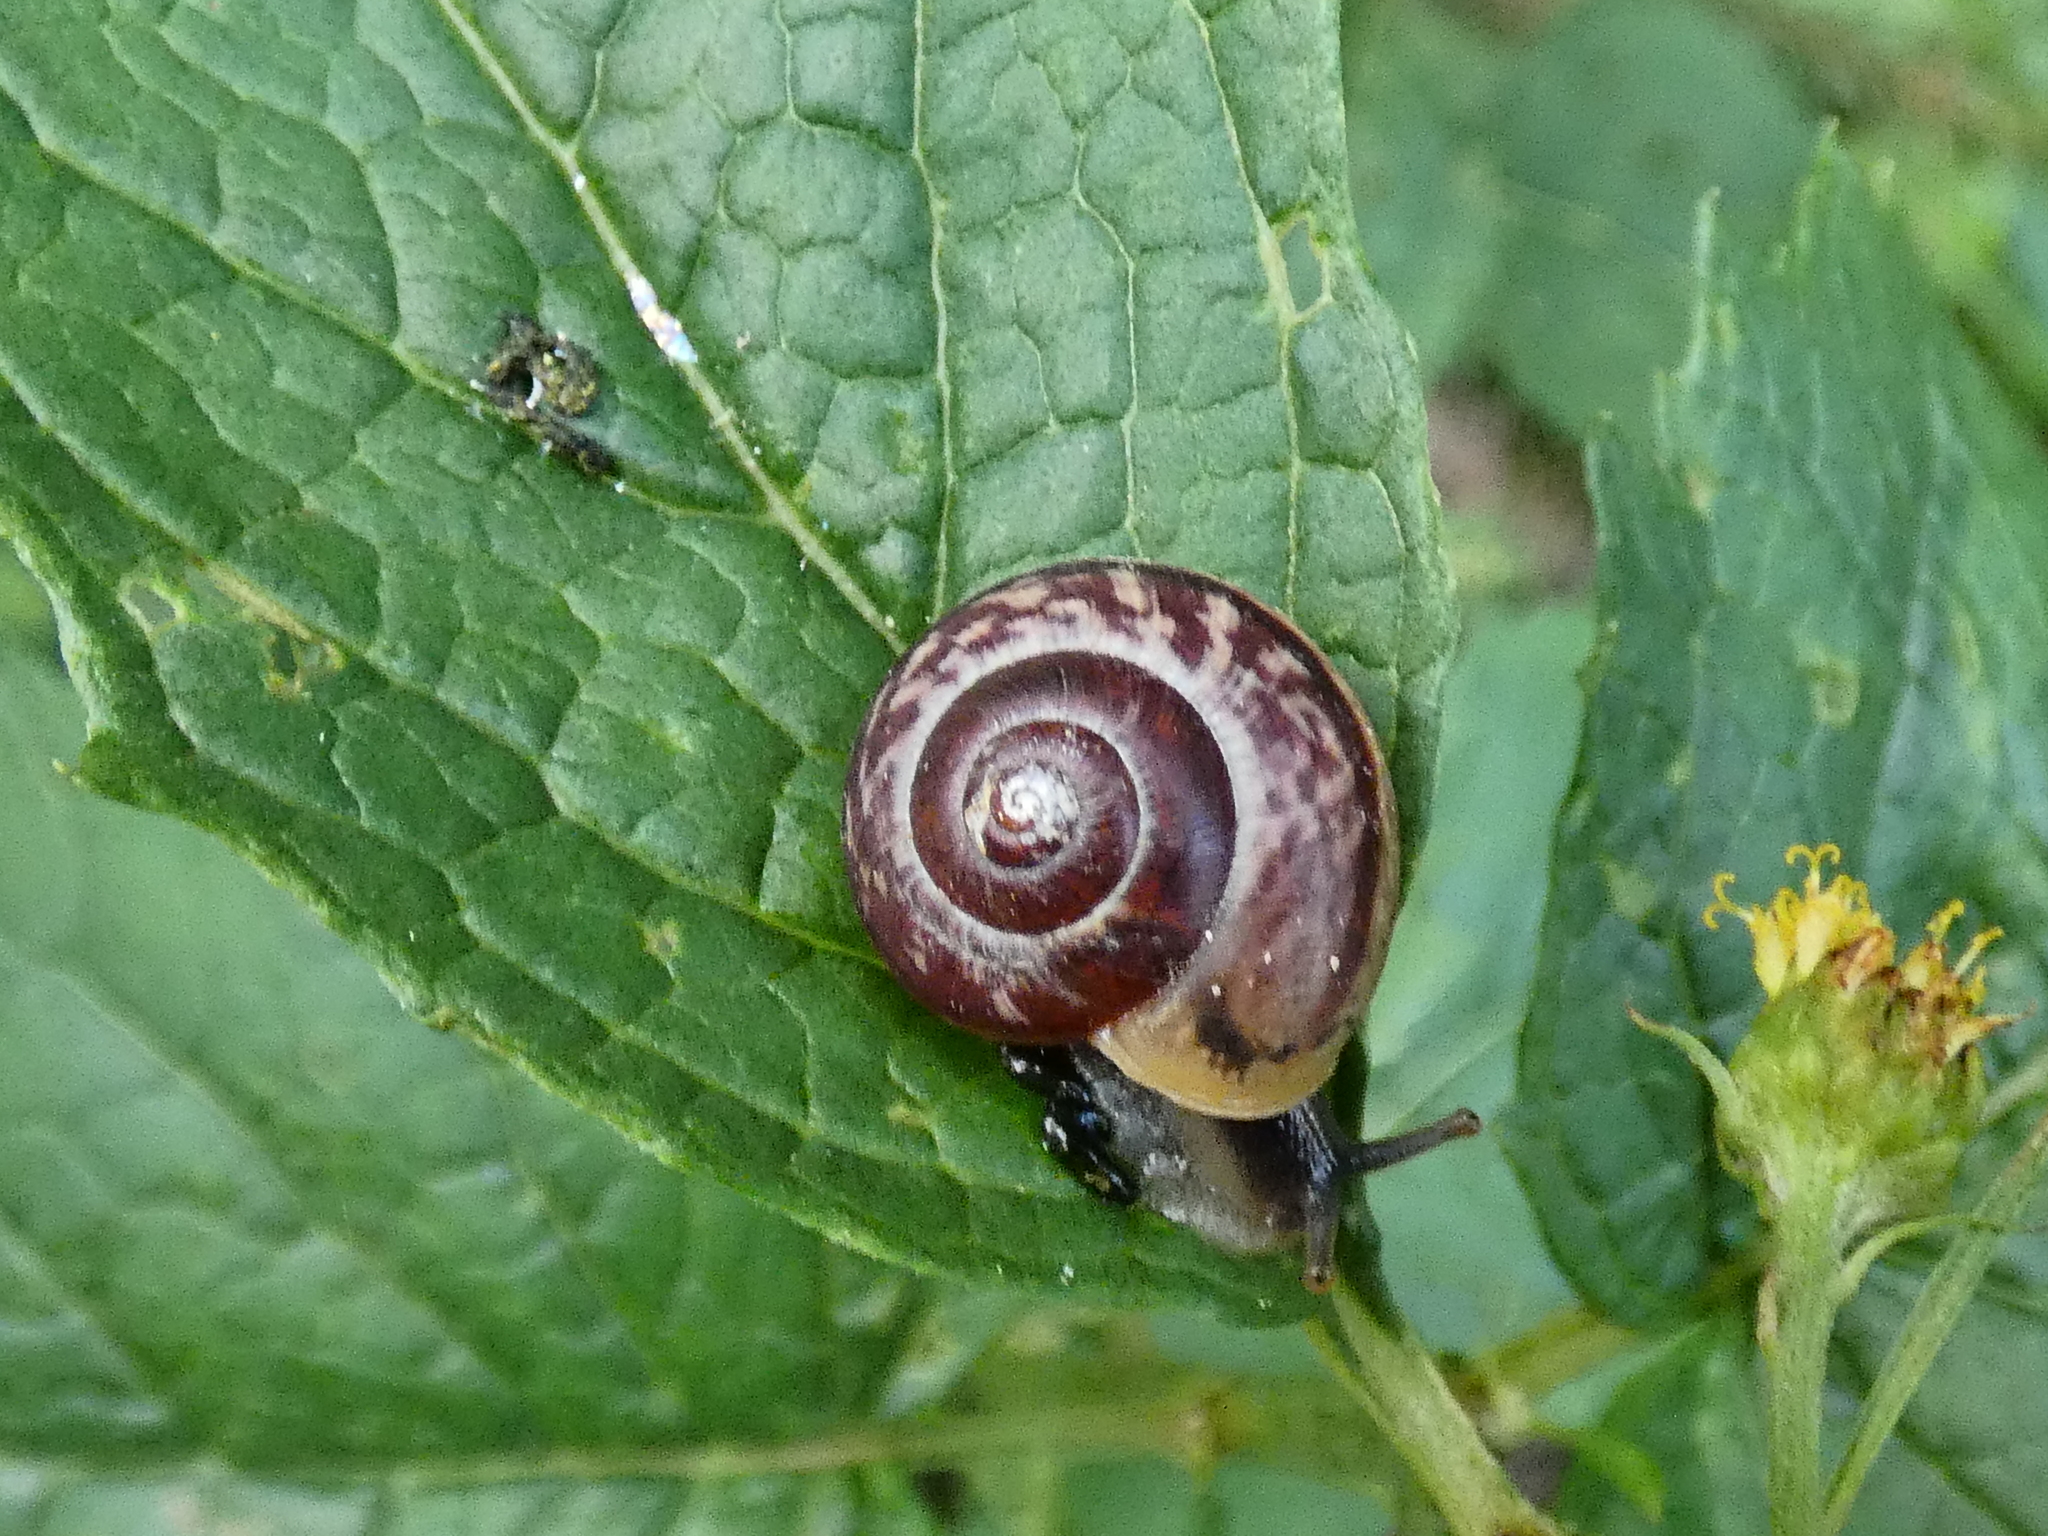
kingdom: Animalia
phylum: Mollusca
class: Gastropoda
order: Stylommatophora
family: Helicidae
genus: Arianta
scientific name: Arianta arbustorum
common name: Copse snail
